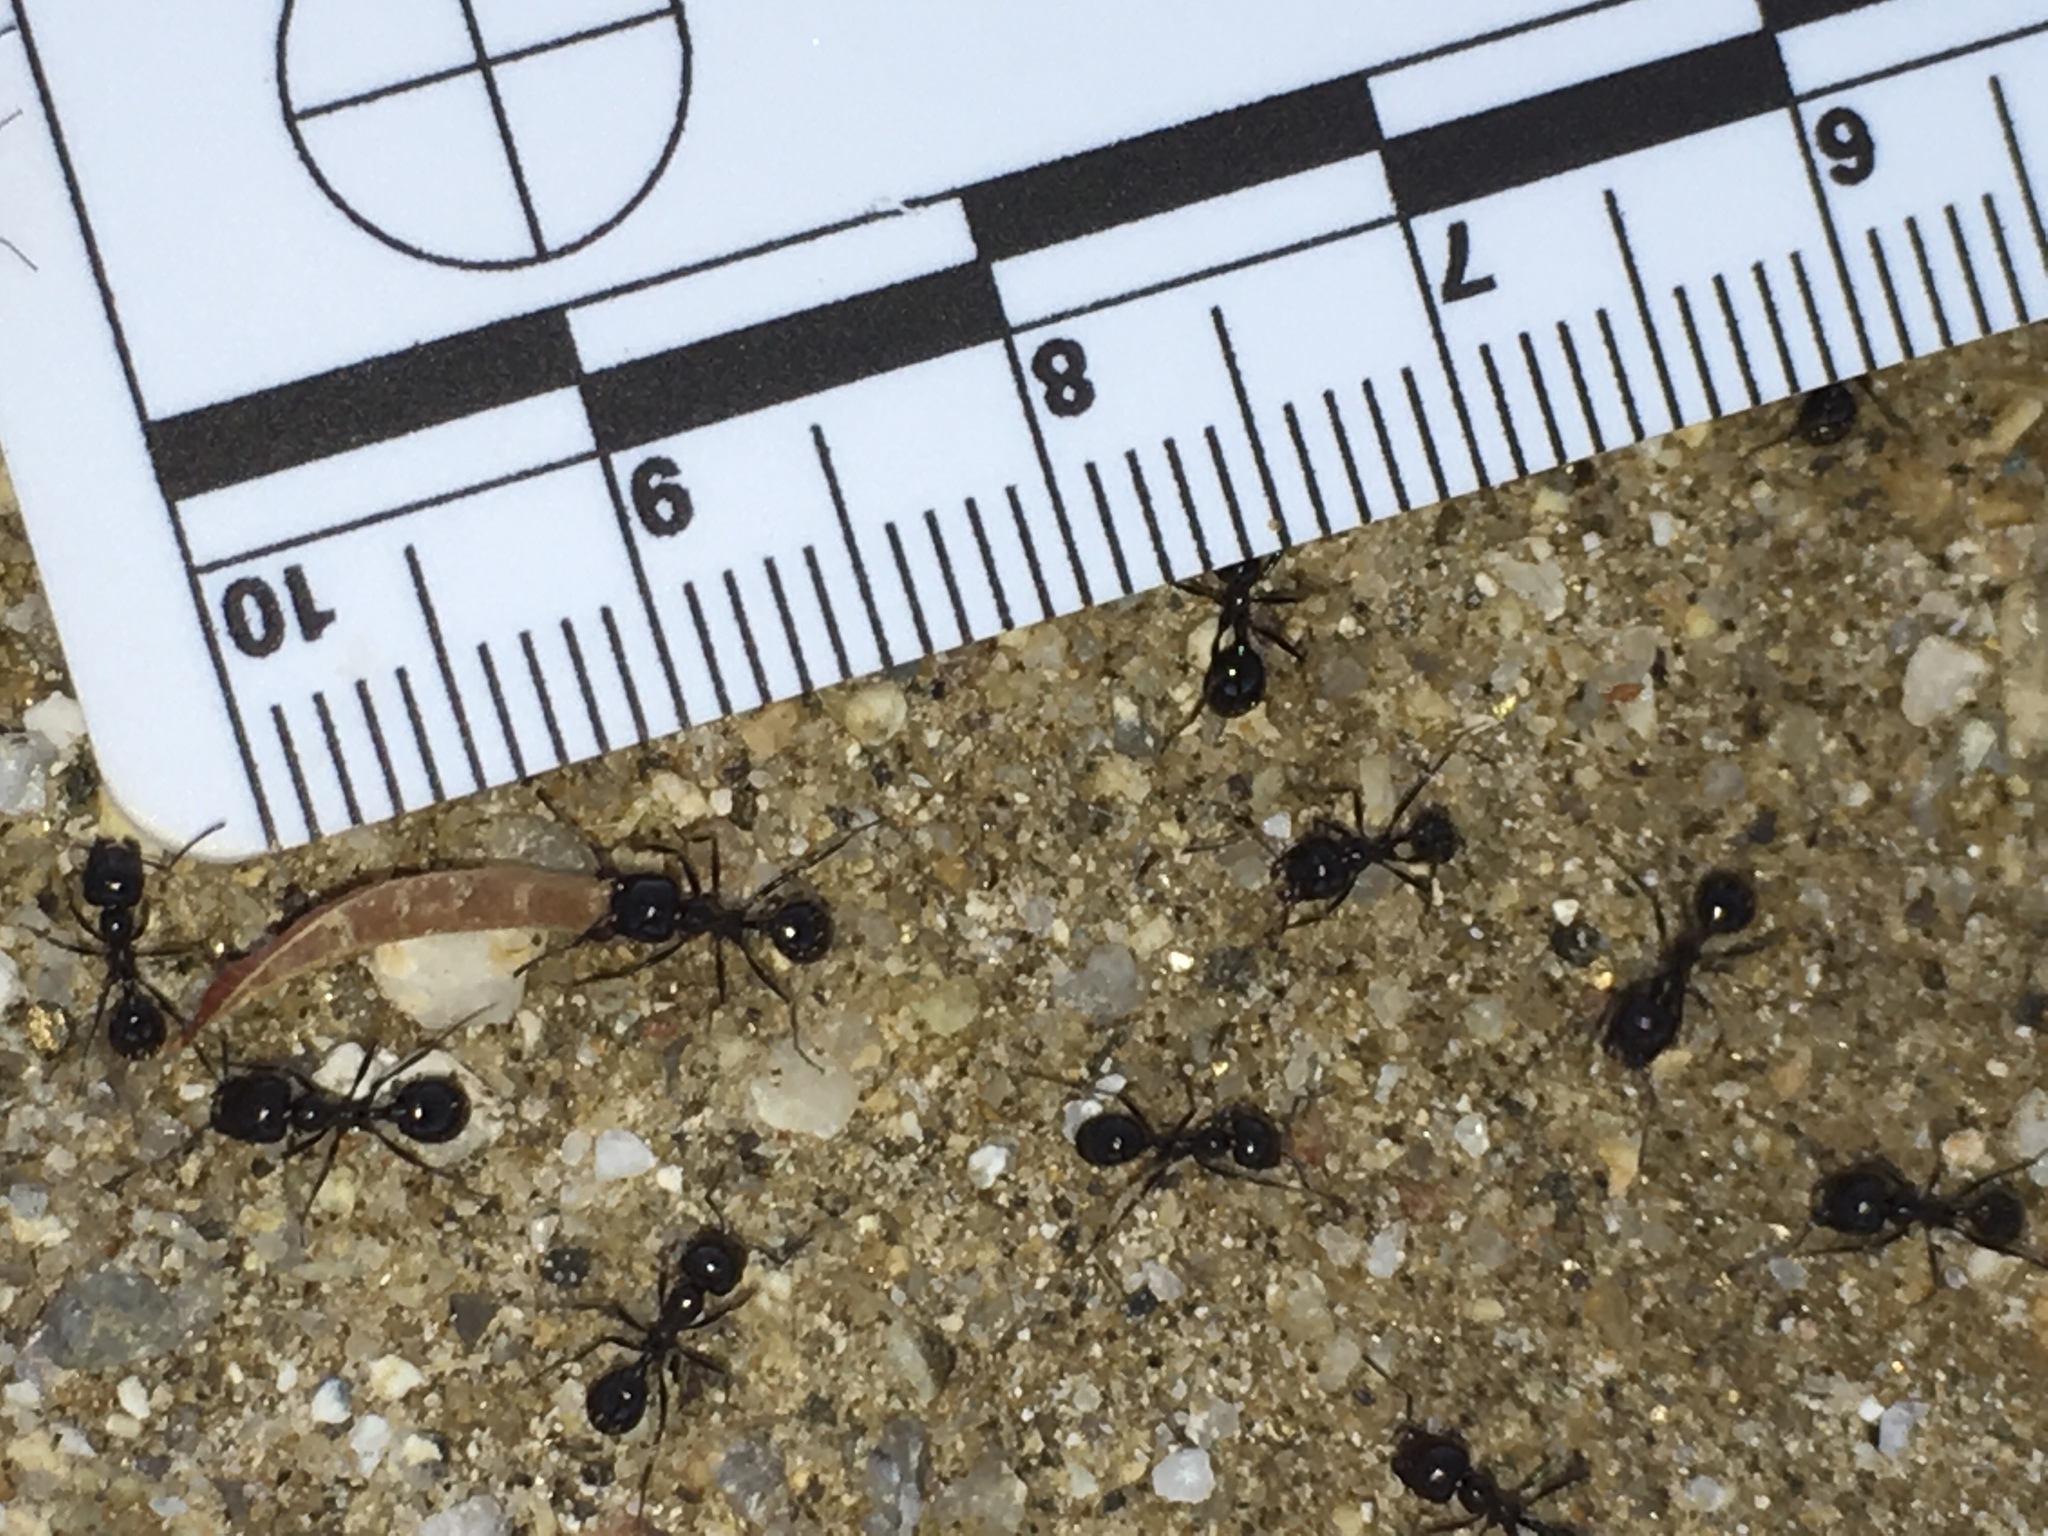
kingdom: Animalia
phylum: Arthropoda
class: Insecta
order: Hymenoptera
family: Formicidae
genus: Messor
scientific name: Messor pergandei
